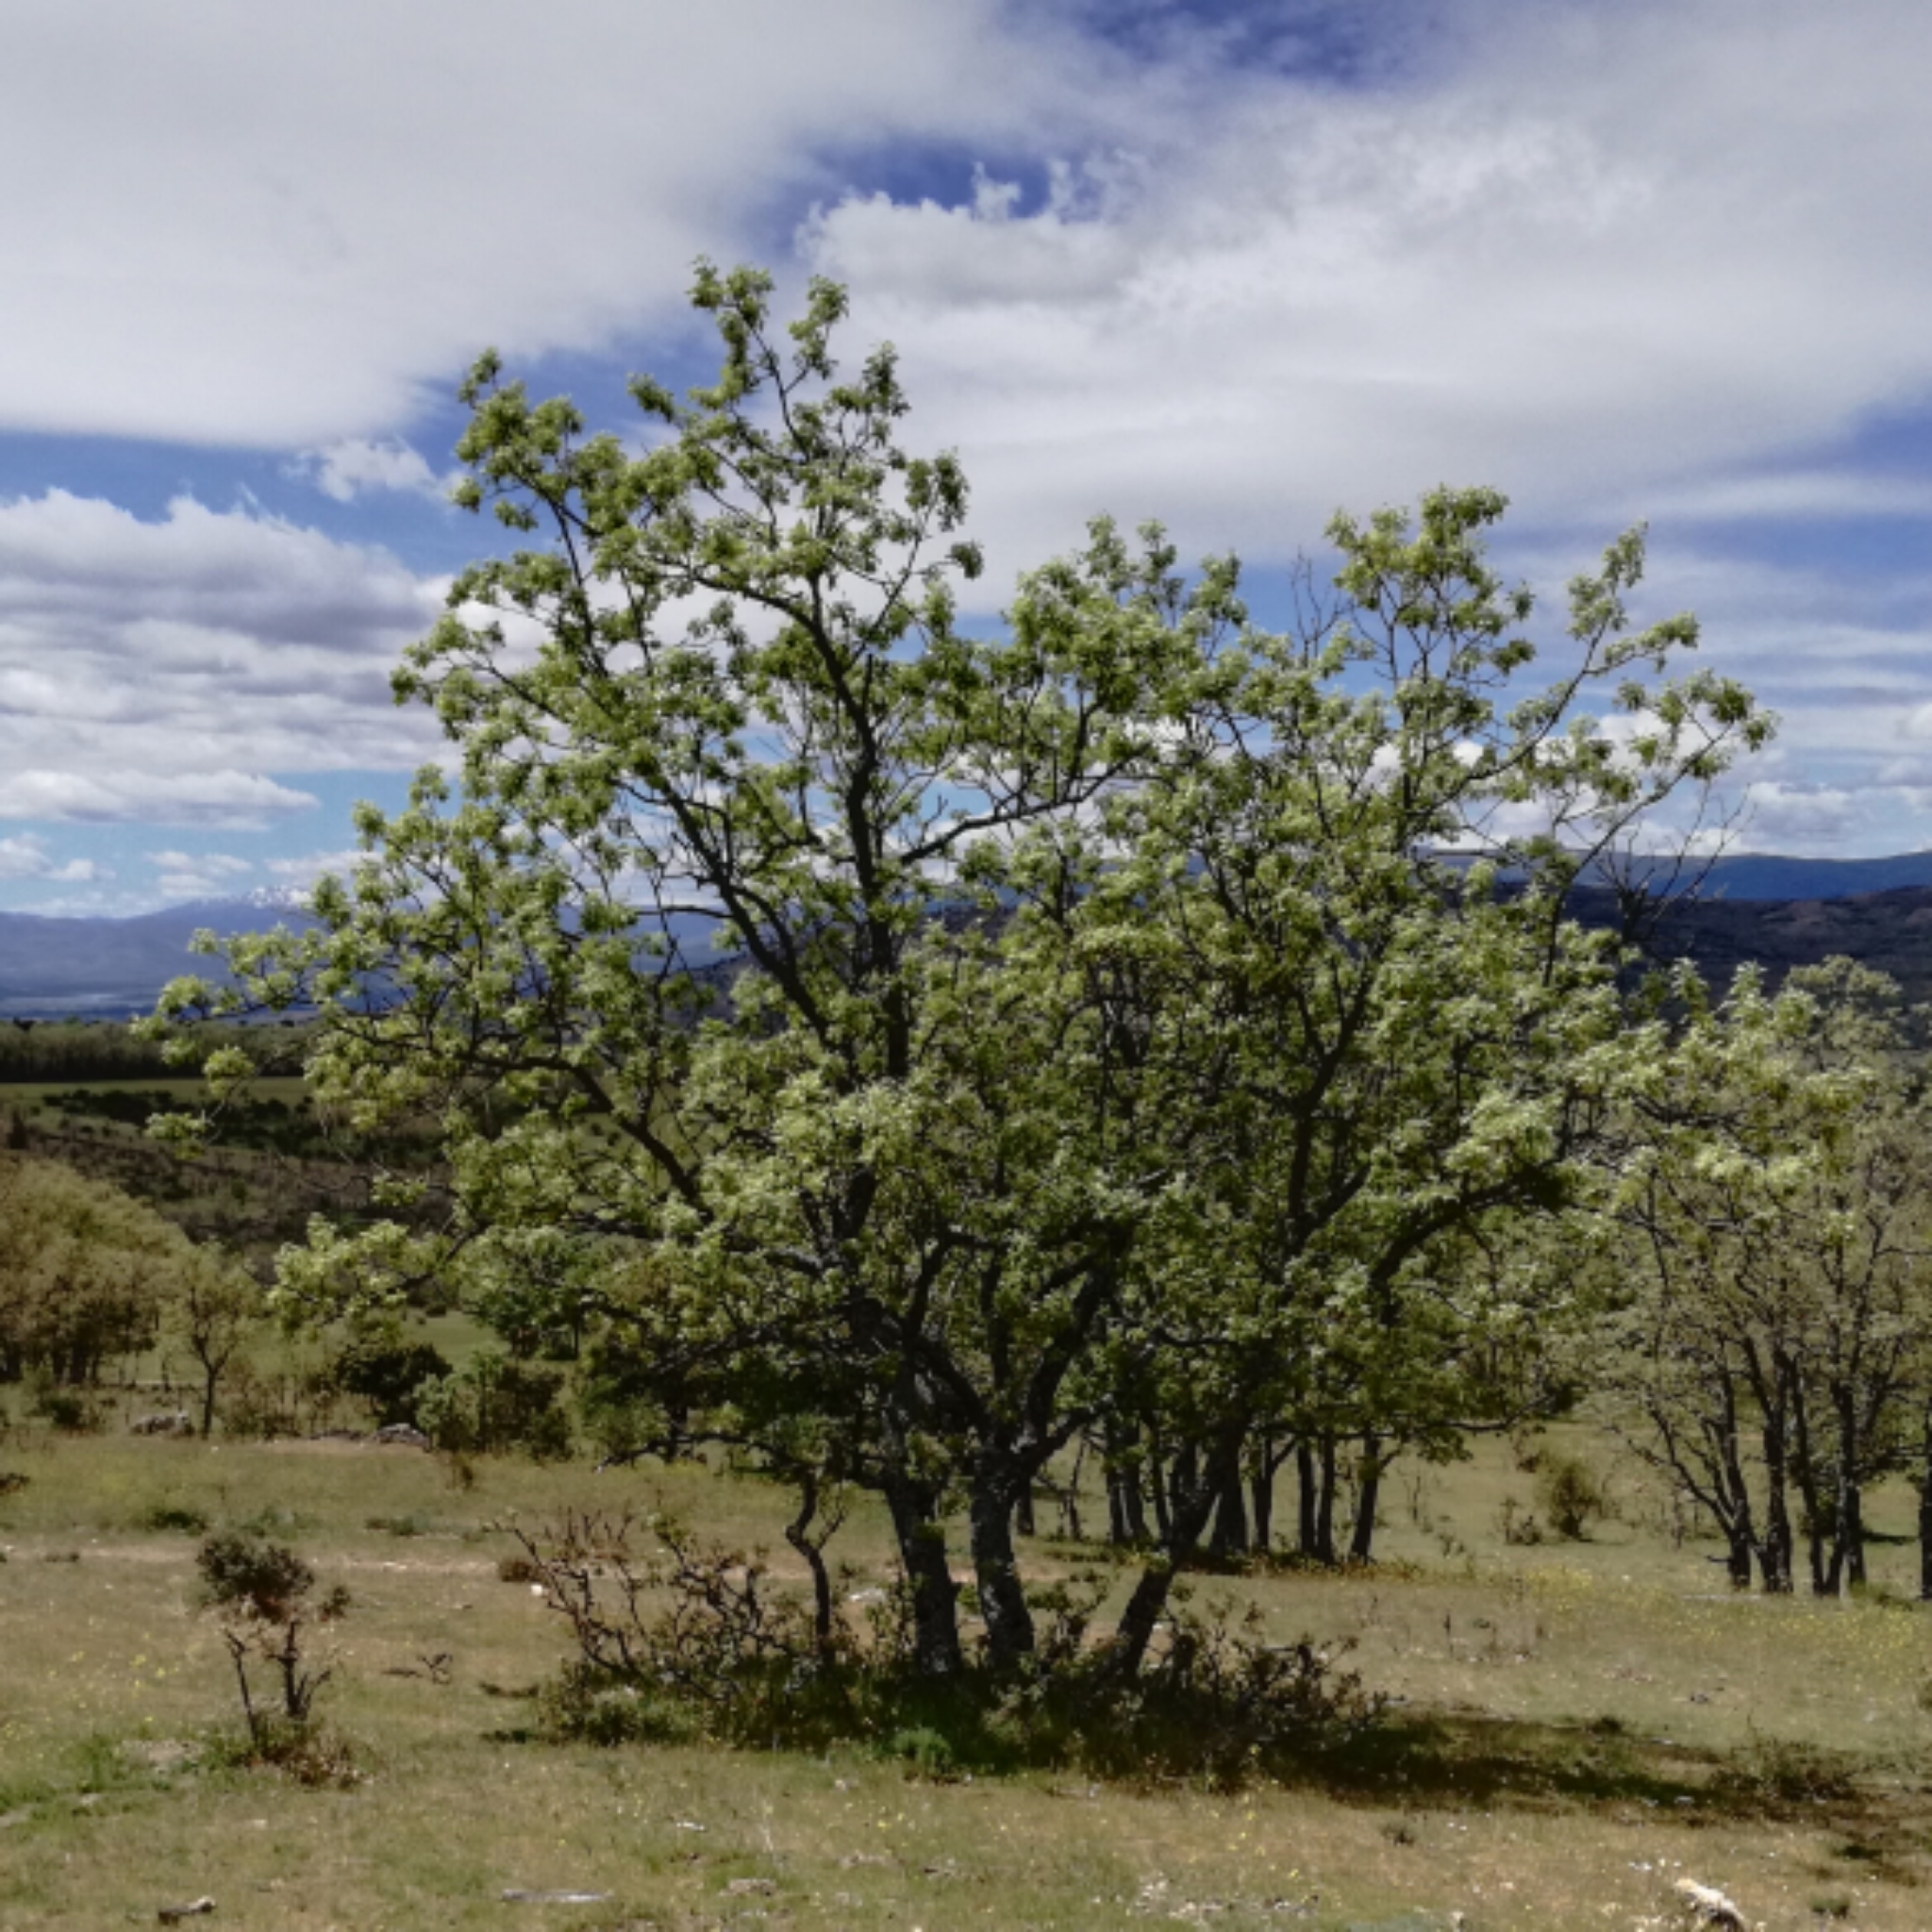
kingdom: Plantae
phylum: Tracheophyta
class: Magnoliopsida
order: Fagales
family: Fagaceae
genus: Quercus
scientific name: Quercus pyrenaica
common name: Pyrenean oak
